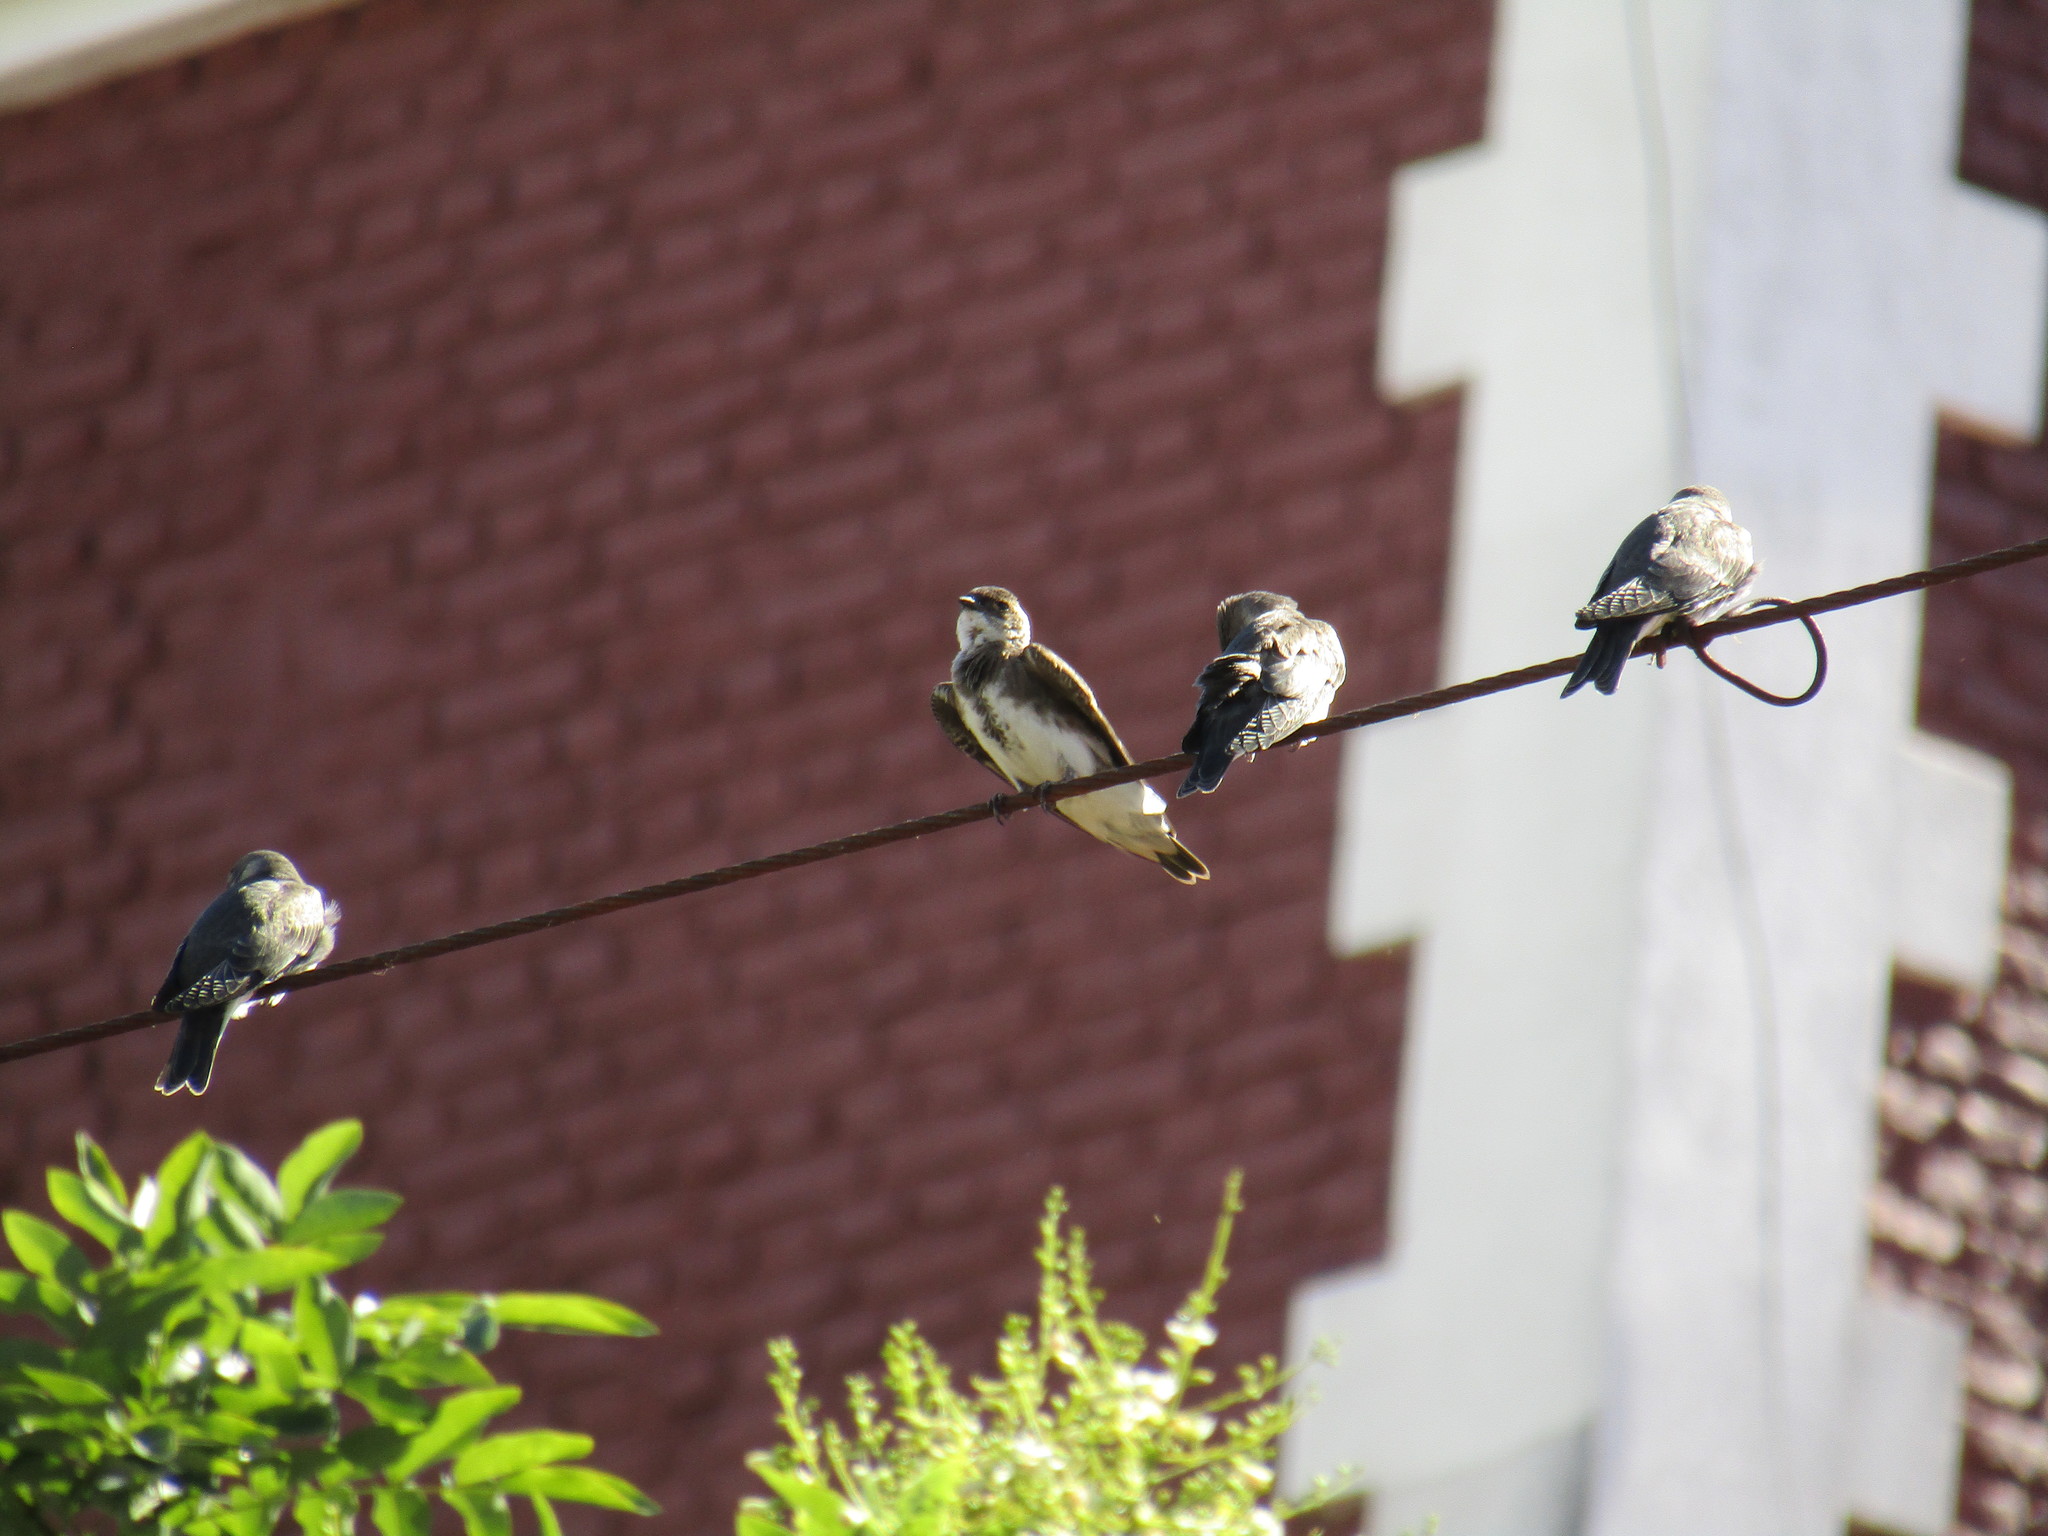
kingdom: Animalia
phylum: Chordata
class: Aves
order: Passeriformes
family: Hirundinidae
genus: Progne
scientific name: Progne tapera
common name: Brown-chested martin
